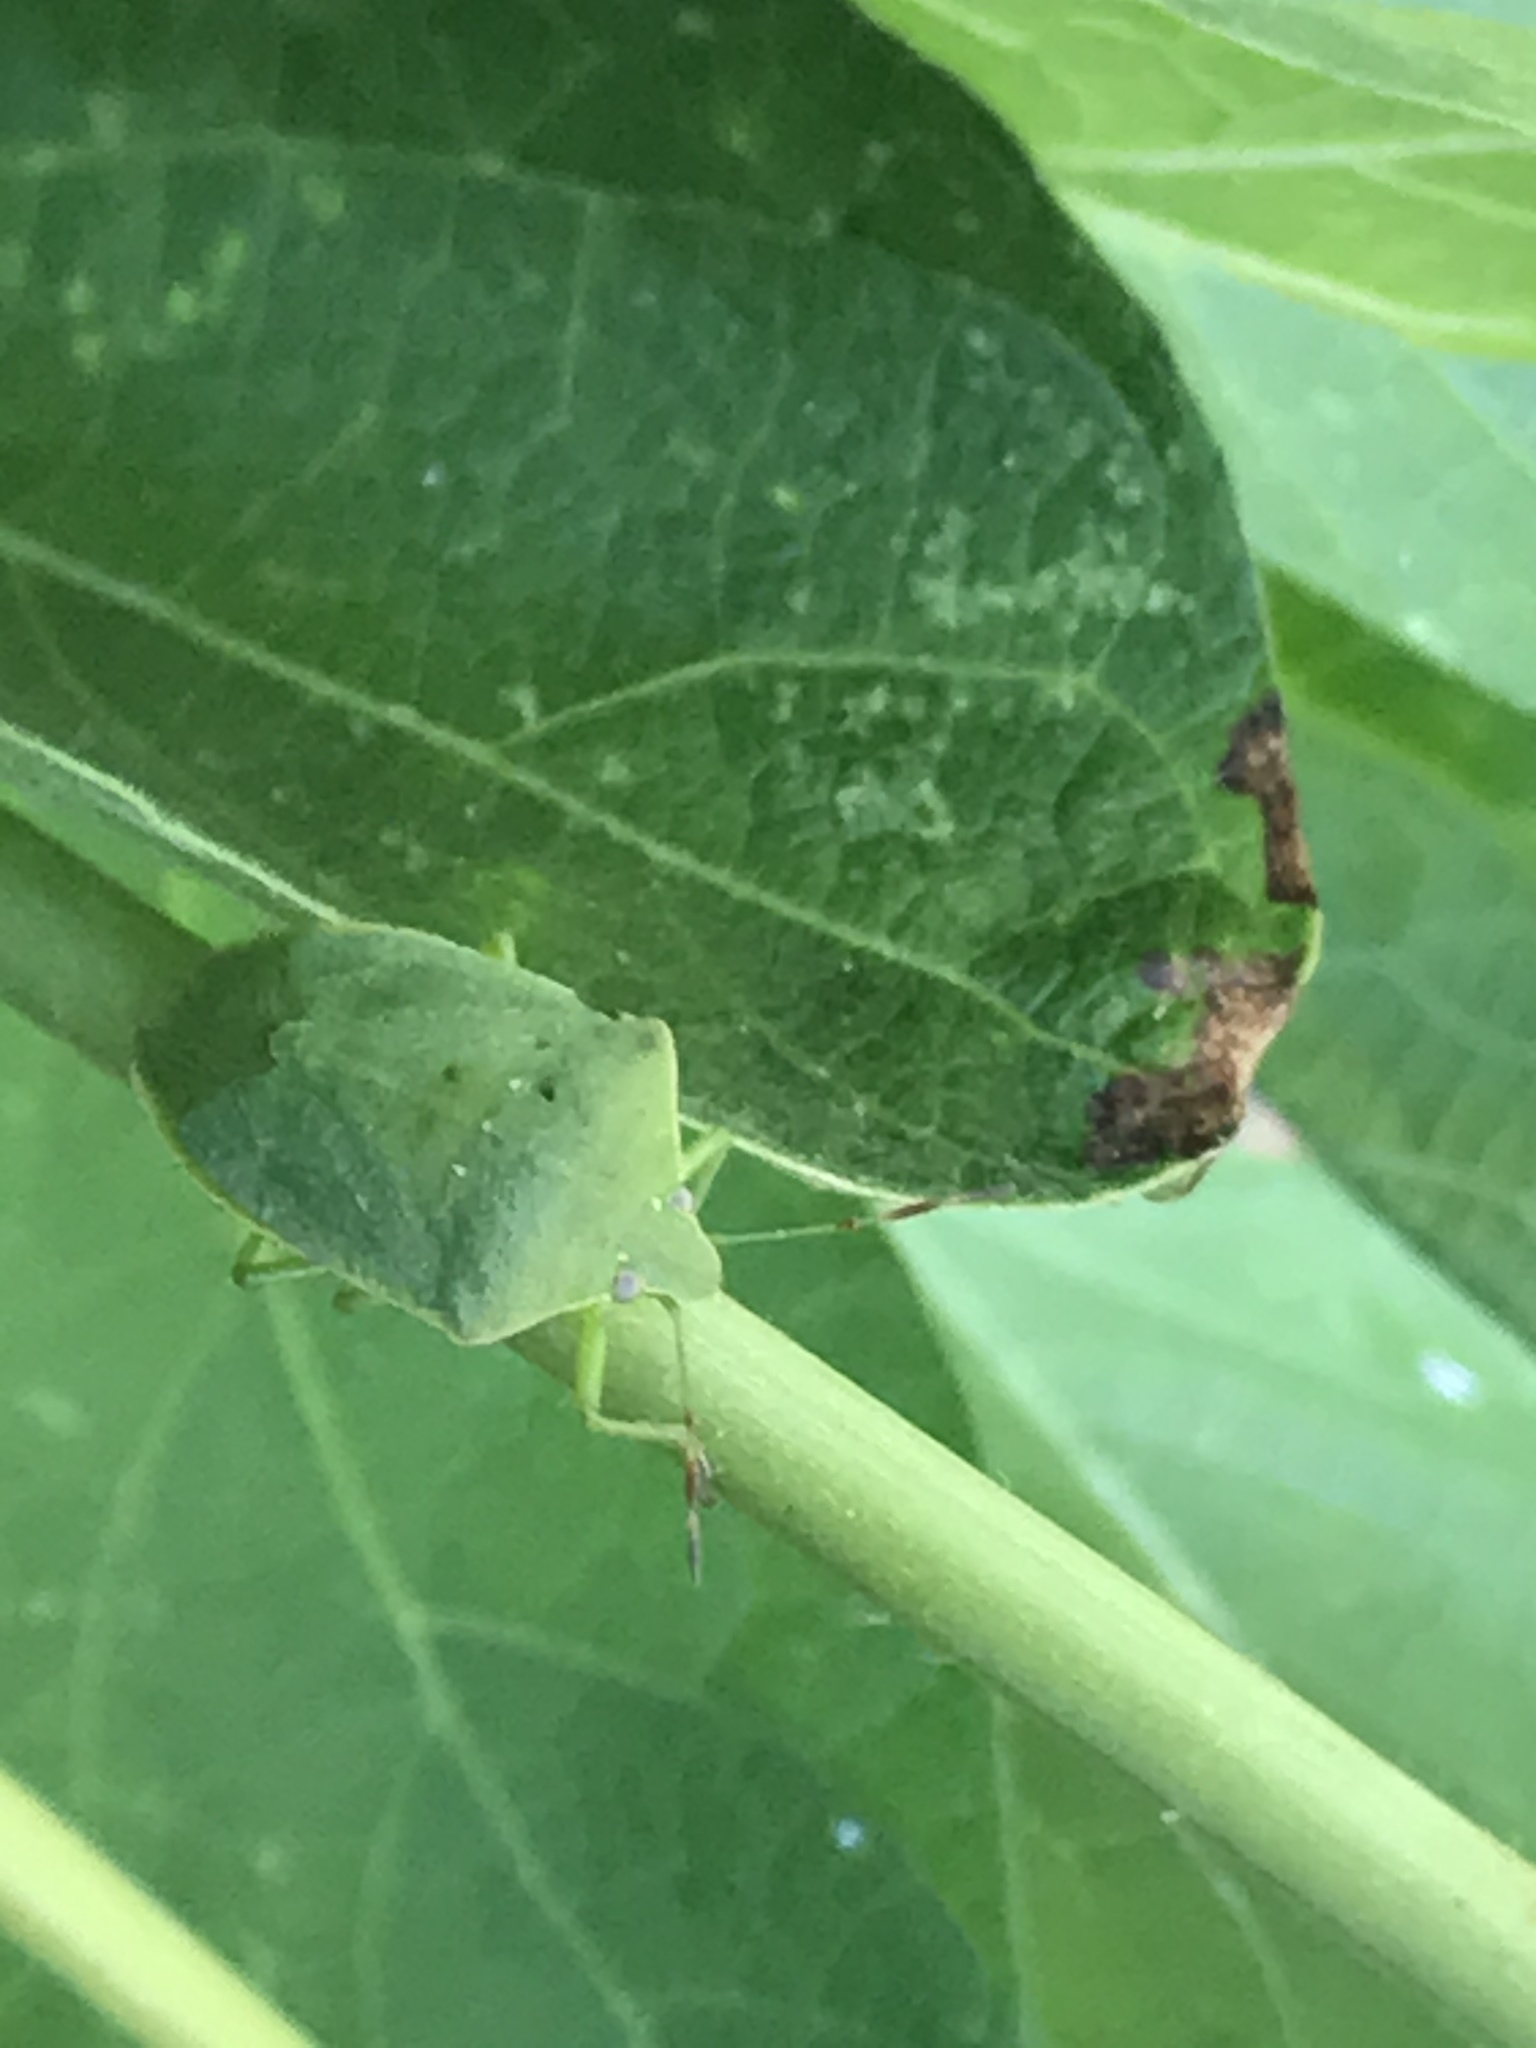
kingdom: Animalia
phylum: Arthropoda
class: Insecta
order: Hemiptera
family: Pentatomidae
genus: Nezara
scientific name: Nezara viridula
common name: Southern green stink bug
